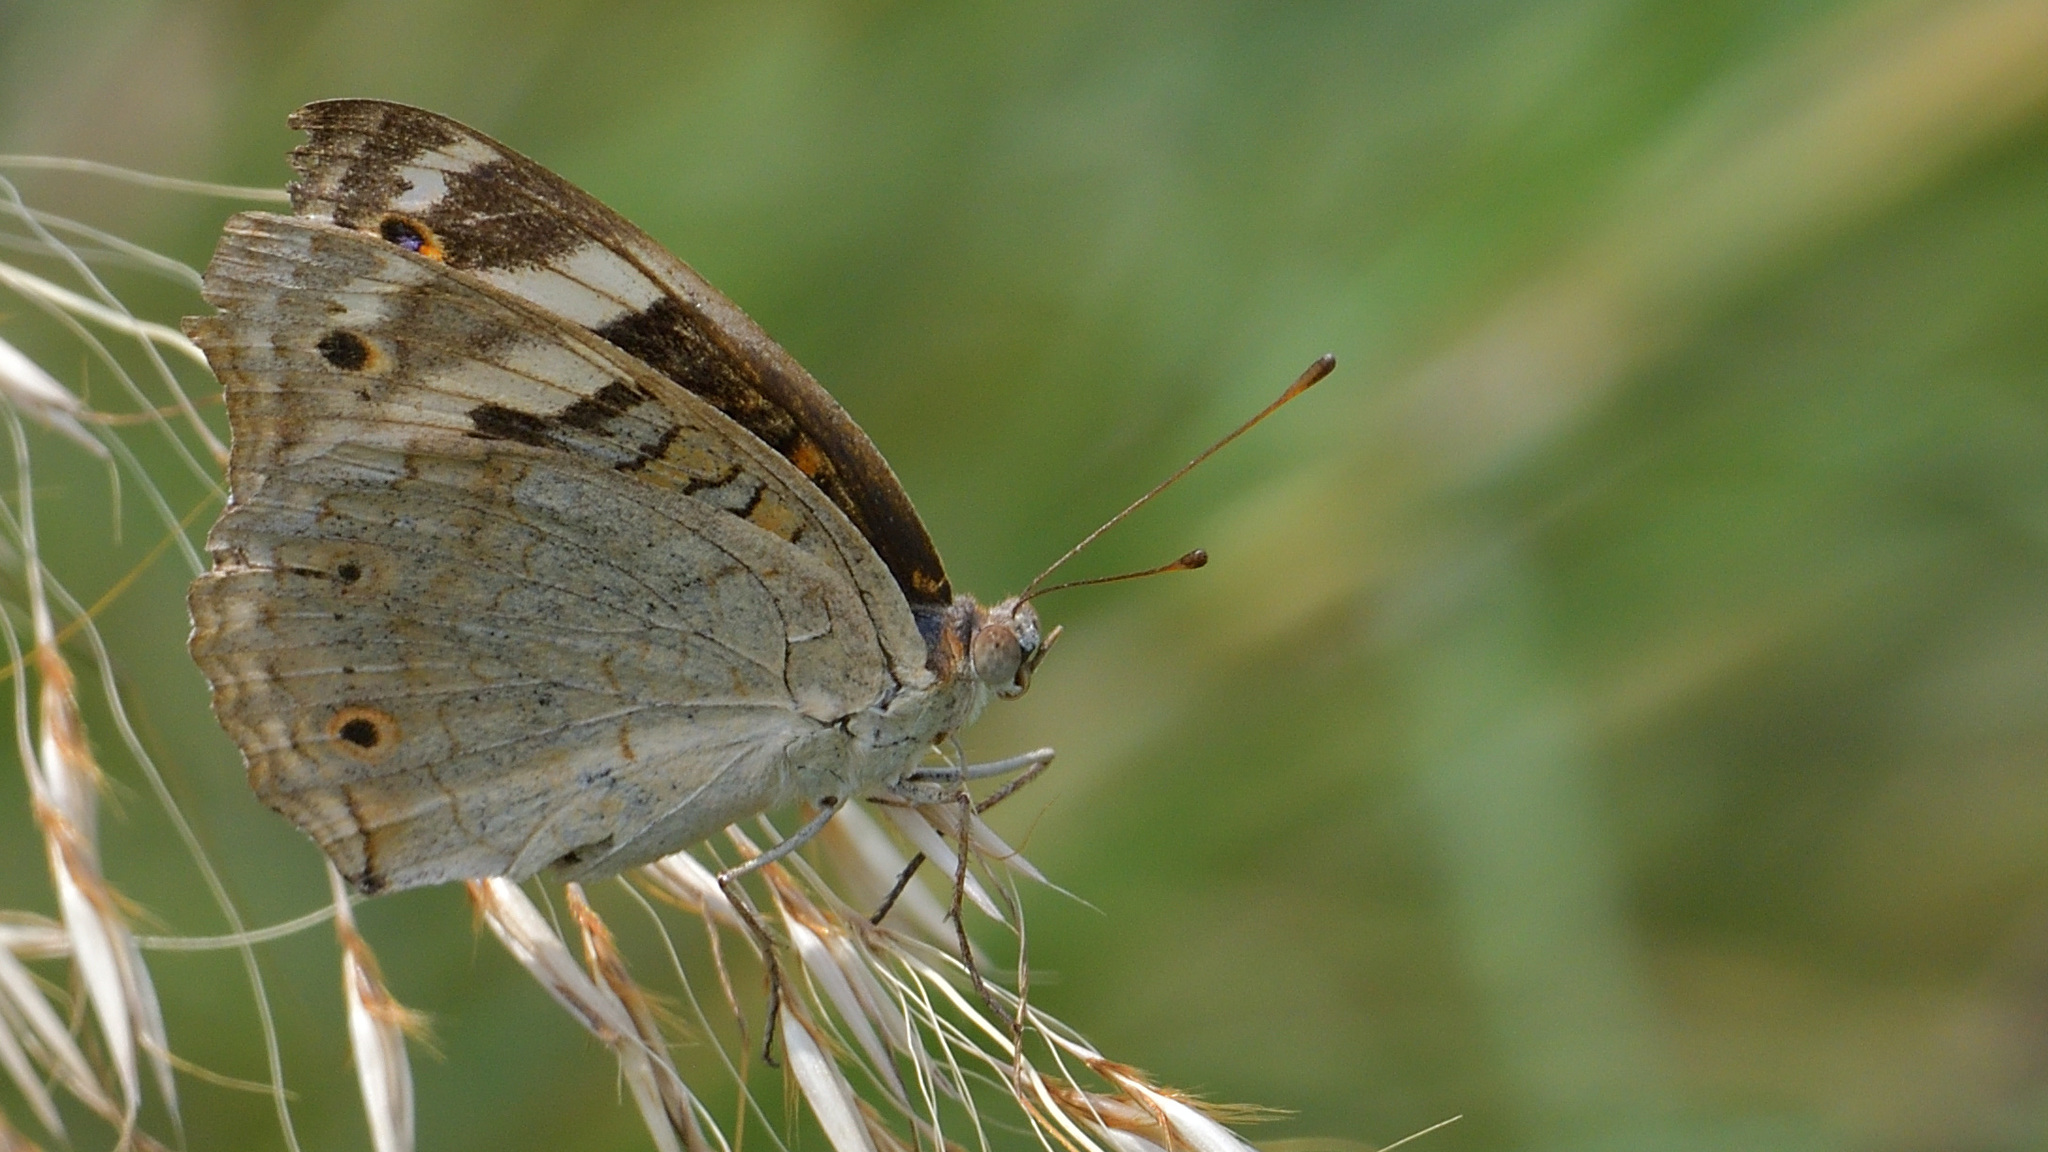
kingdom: Animalia
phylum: Arthropoda
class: Insecta
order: Lepidoptera
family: Nymphalidae
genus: Junonia
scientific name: Junonia orithya
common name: Blue pansy
